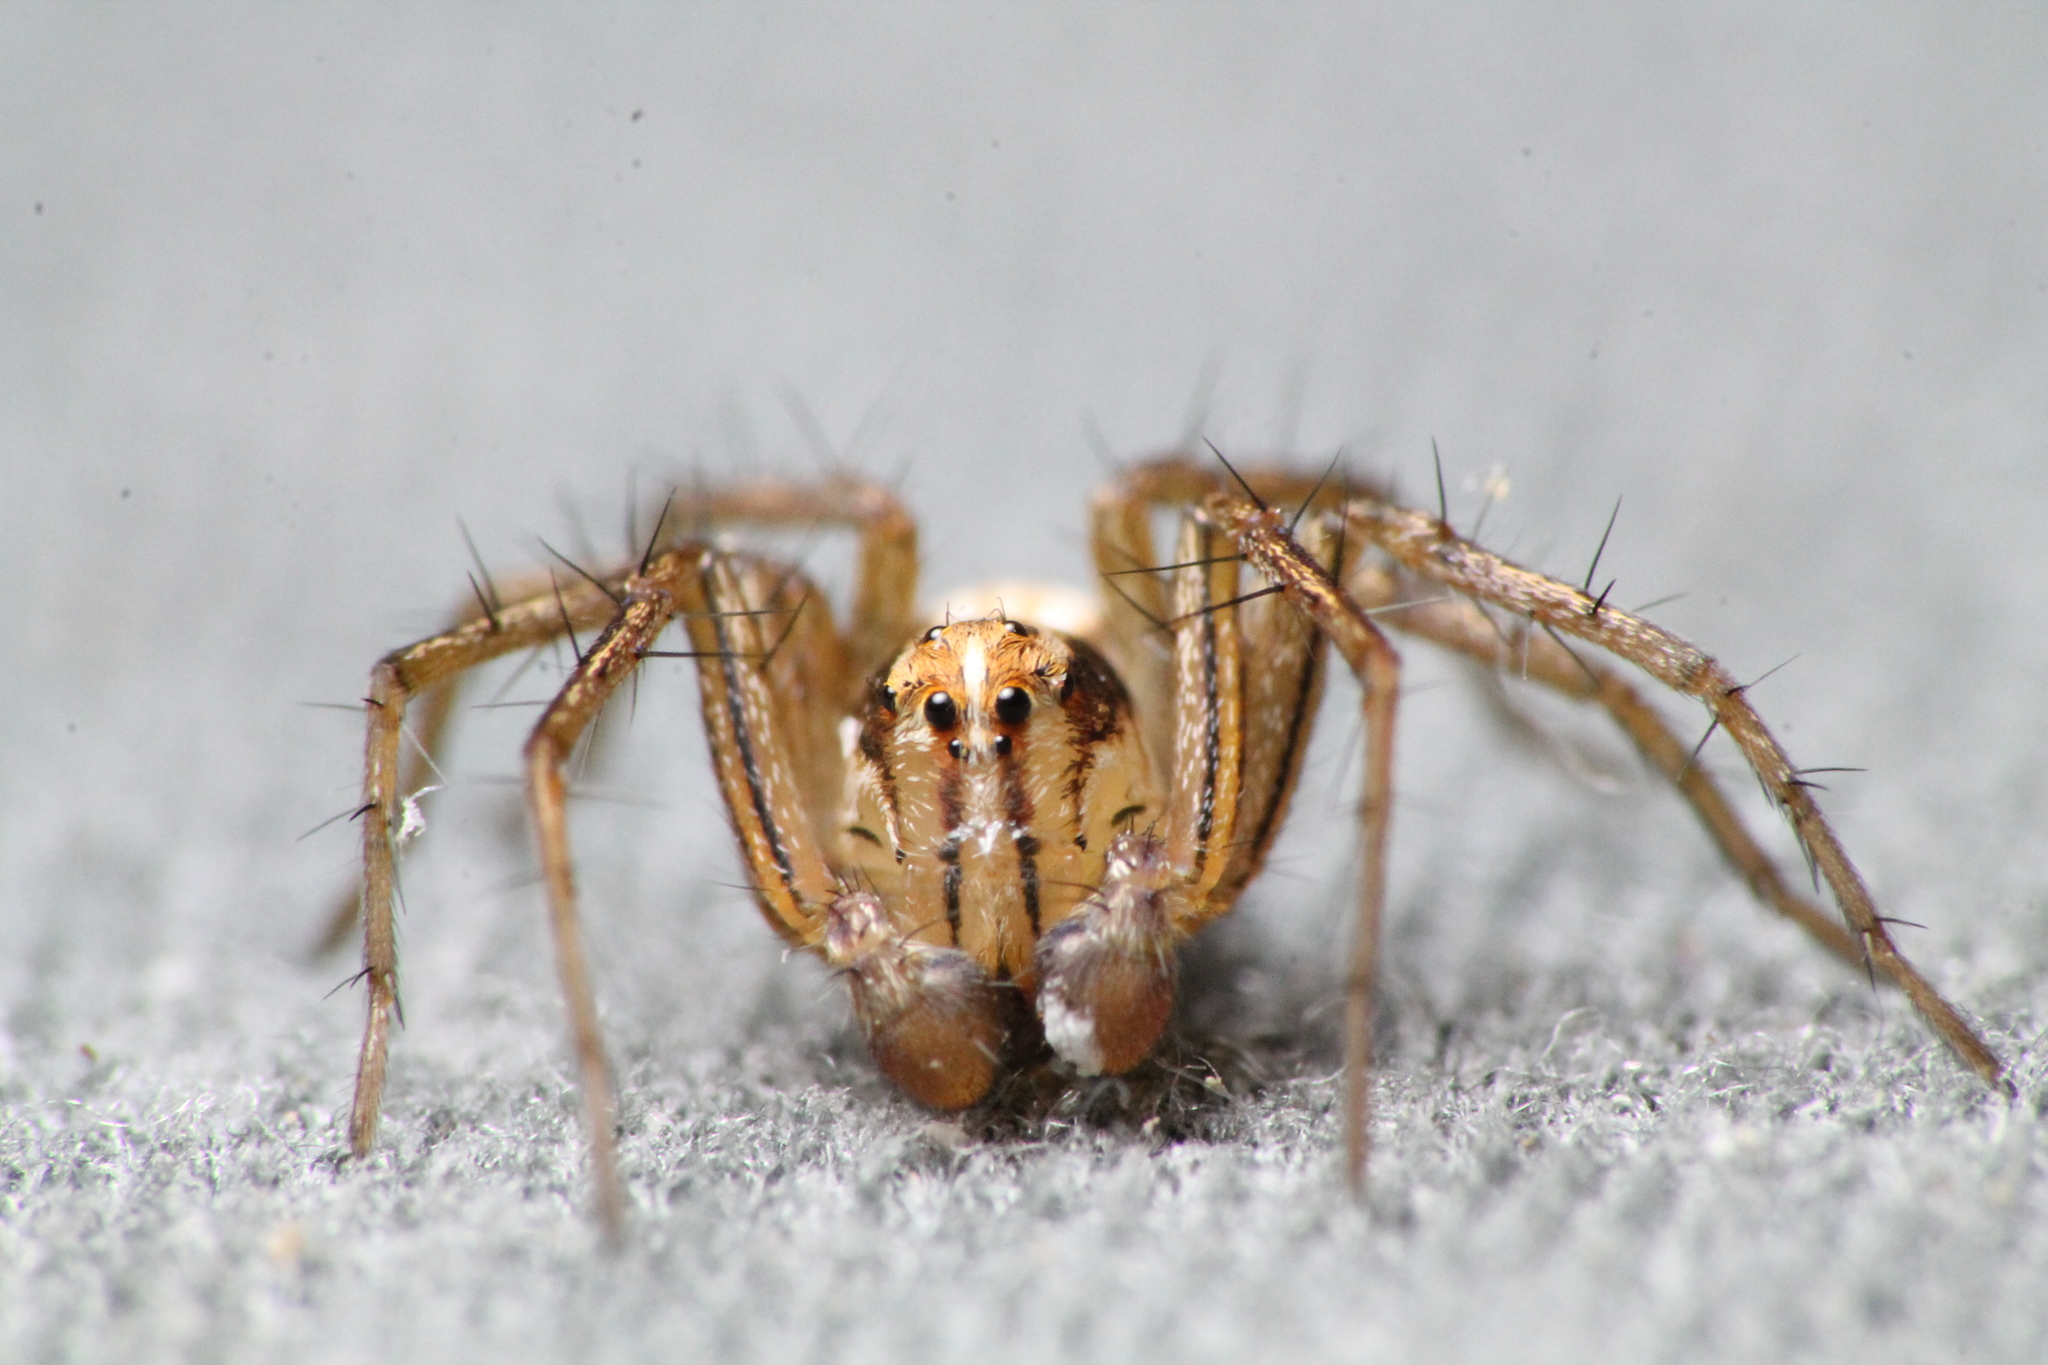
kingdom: Animalia
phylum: Arthropoda
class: Arachnida
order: Araneae
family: Oxyopidae
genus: Oxyopes
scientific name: Oxyopes gracilipes
